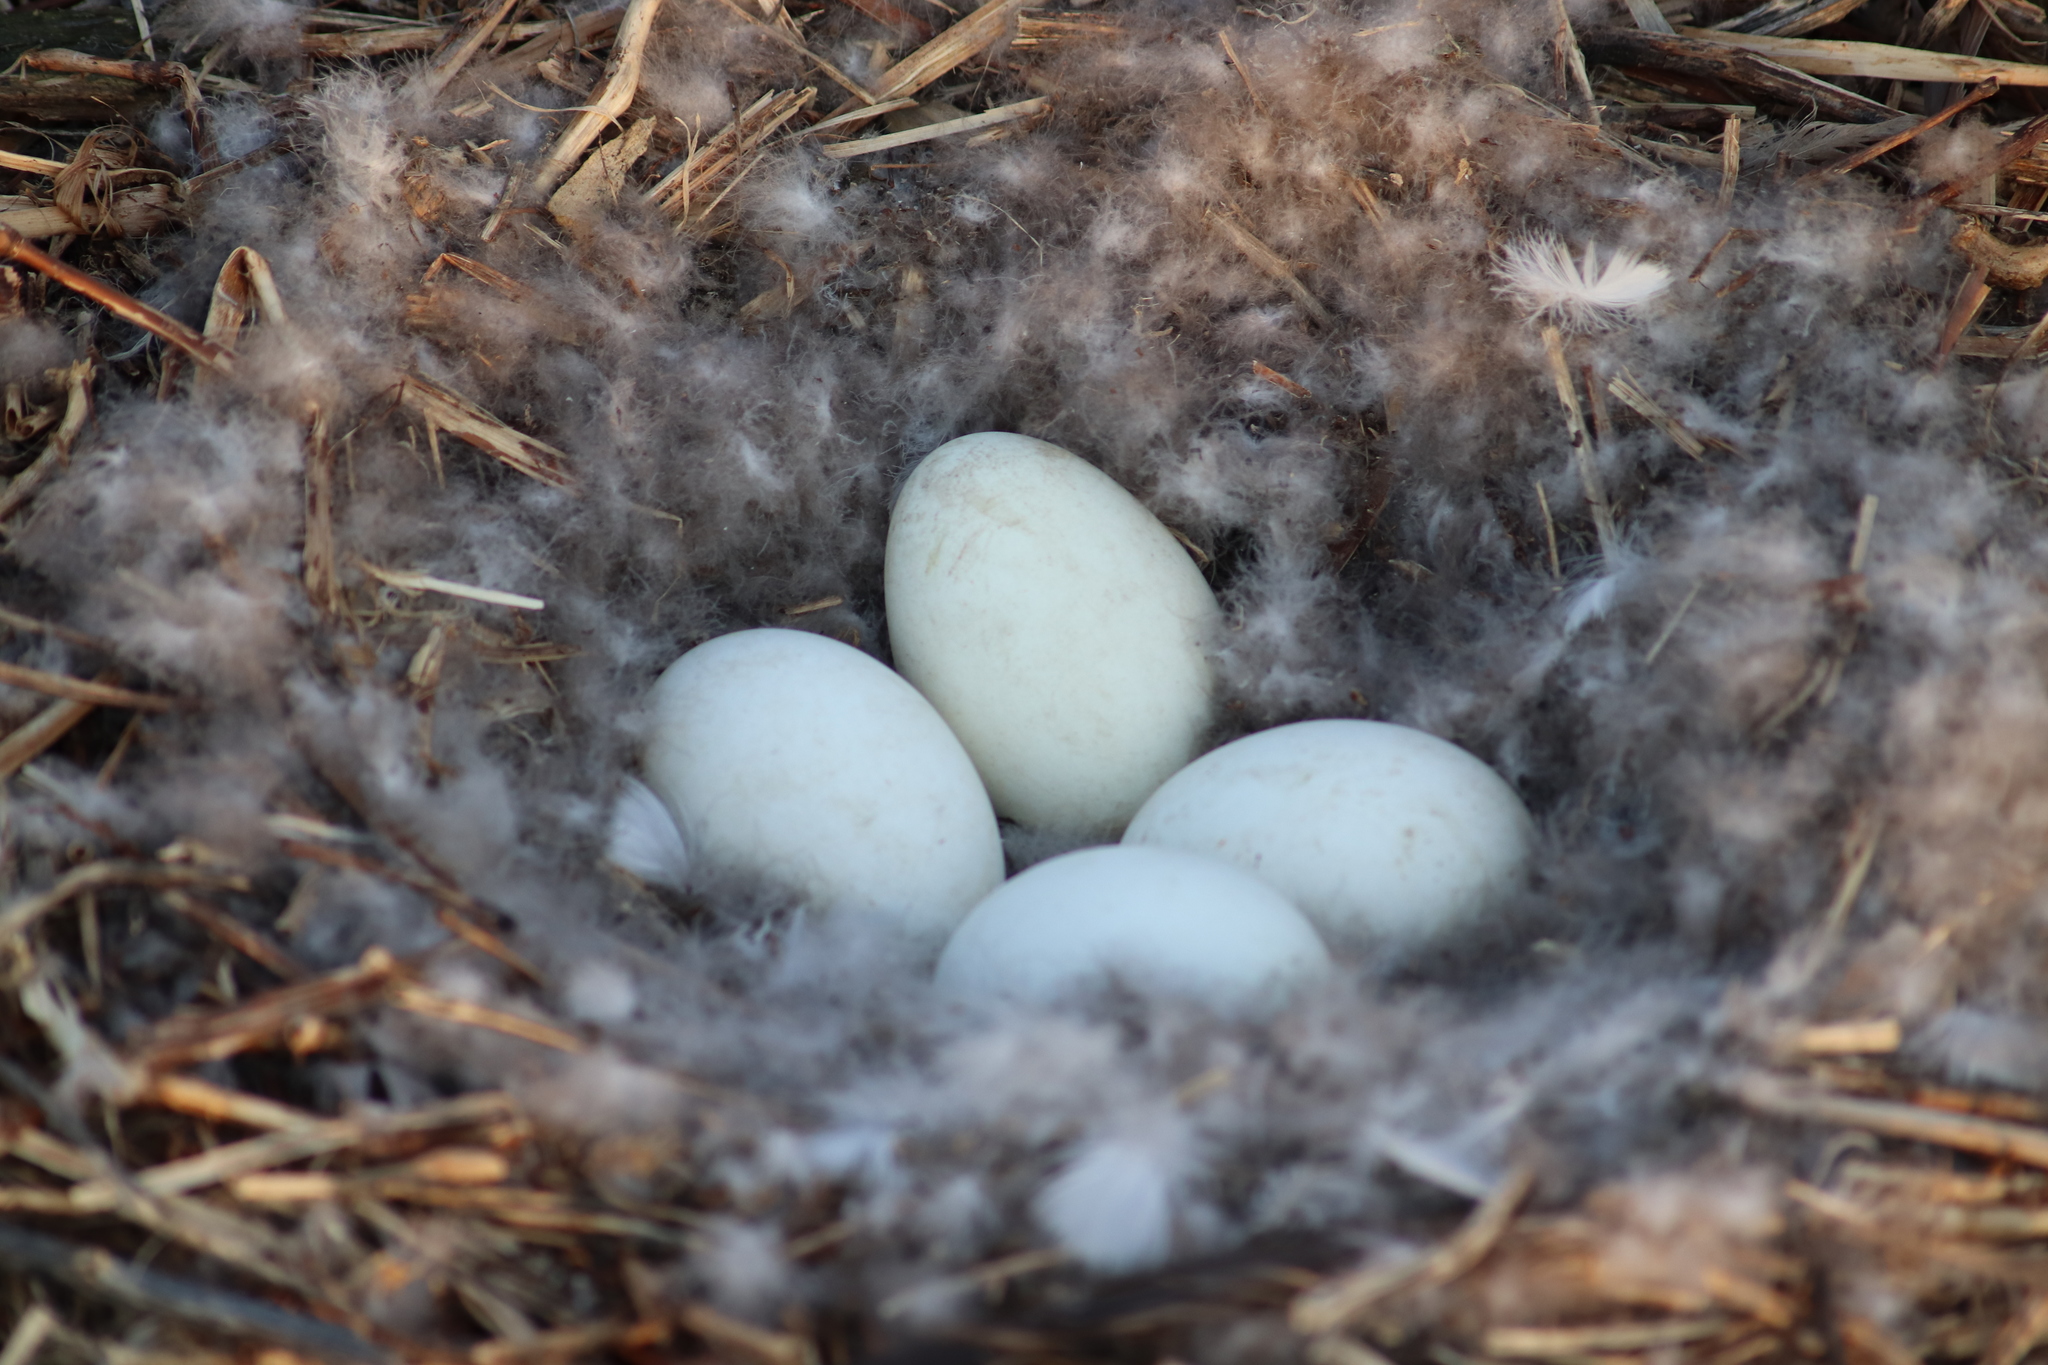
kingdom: Animalia
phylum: Chordata
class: Aves
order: Anseriformes
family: Anatidae
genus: Branta
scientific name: Branta canadensis
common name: Canada goose
